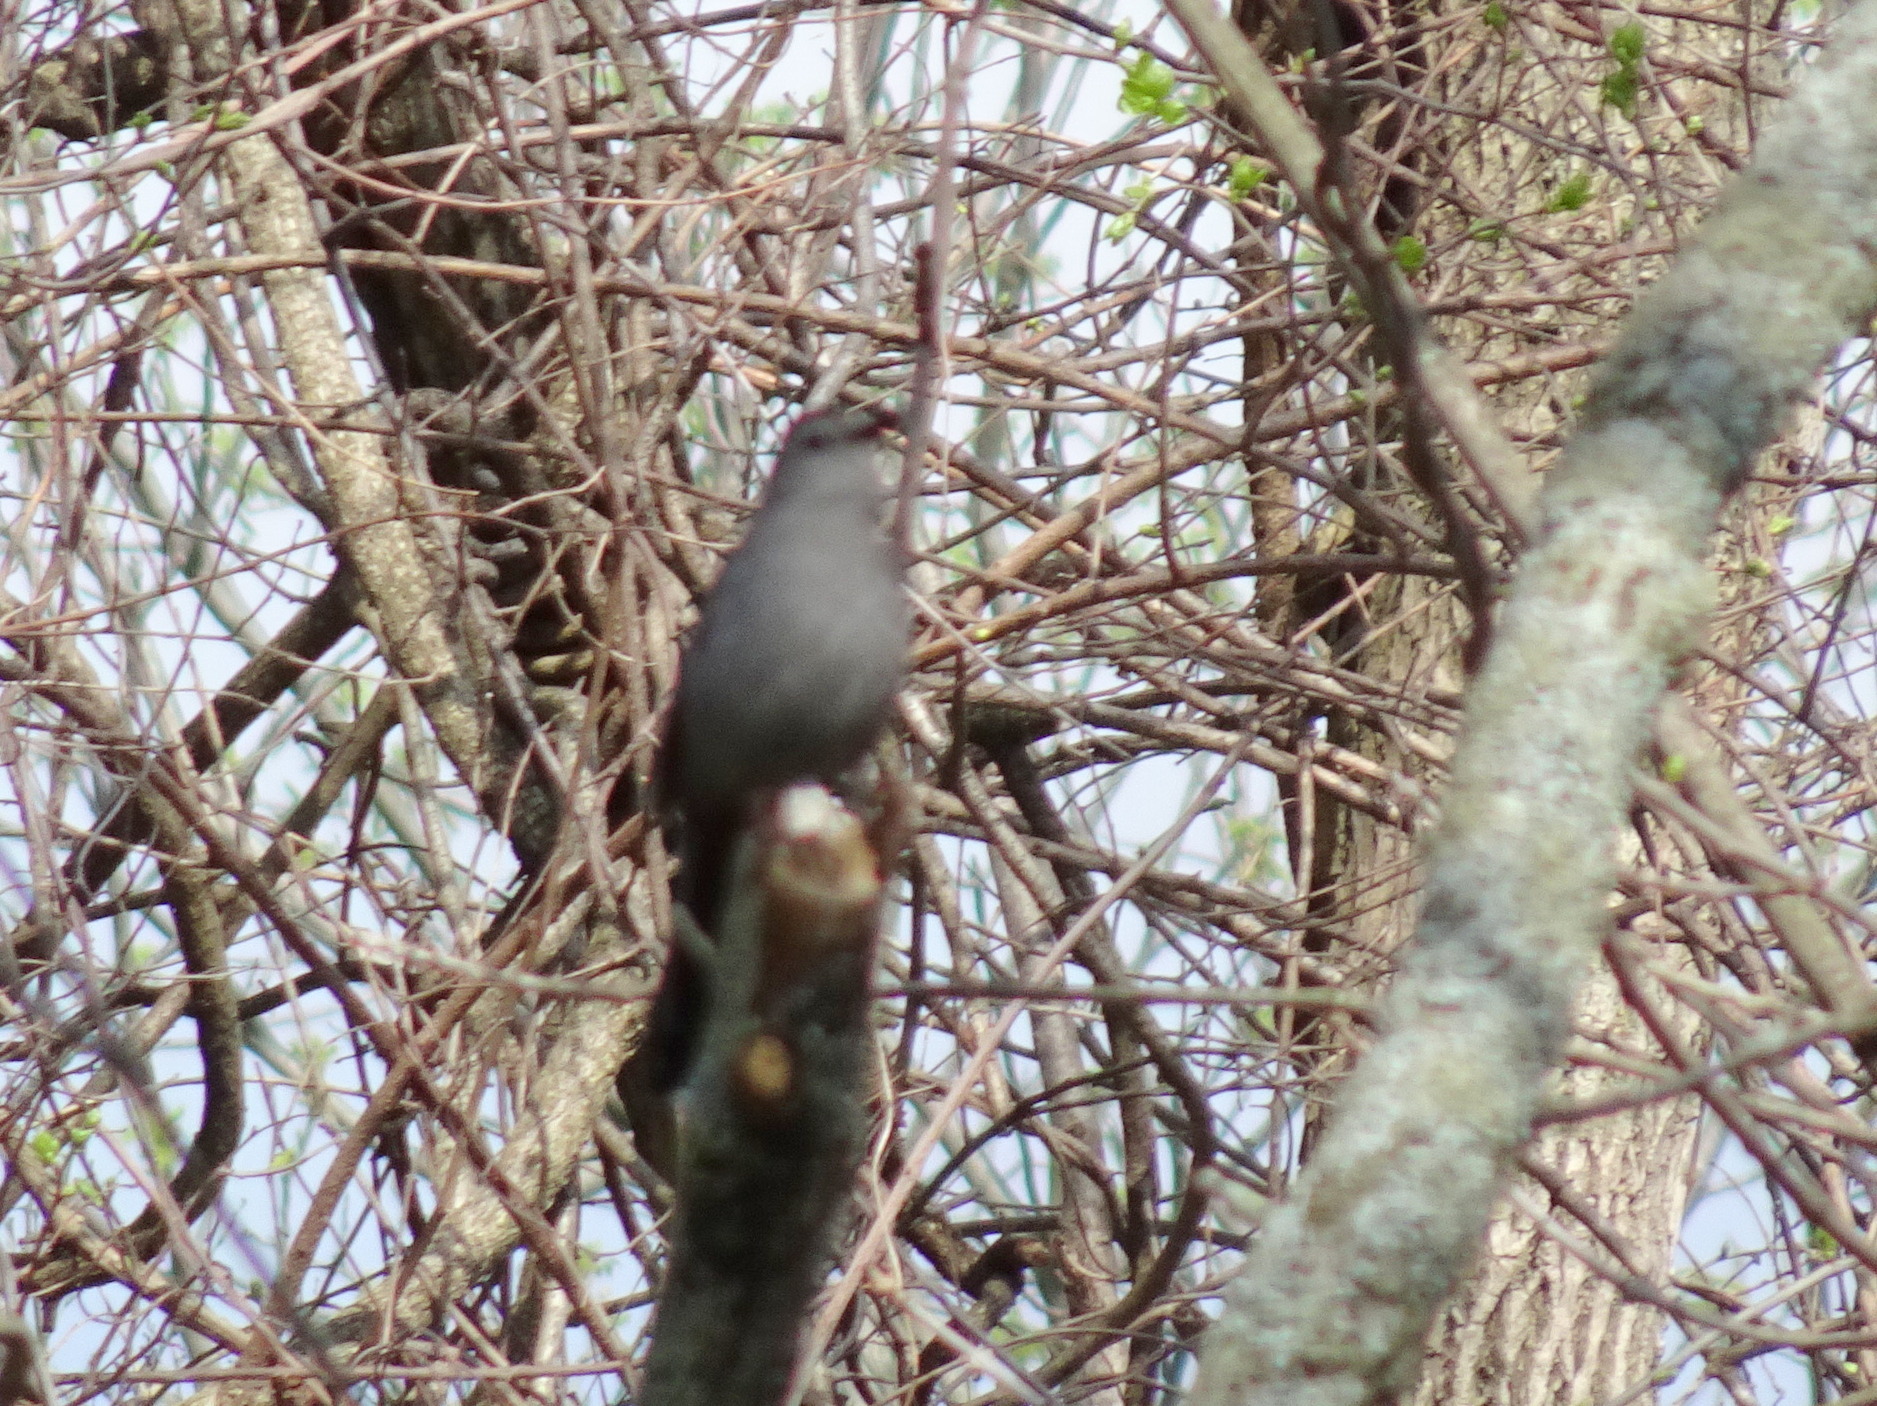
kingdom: Animalia
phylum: Chordata
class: Aves
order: Passeriformes
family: Mimidae
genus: Dumetella
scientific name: Dumetella carolinensis
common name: Gray catbird
